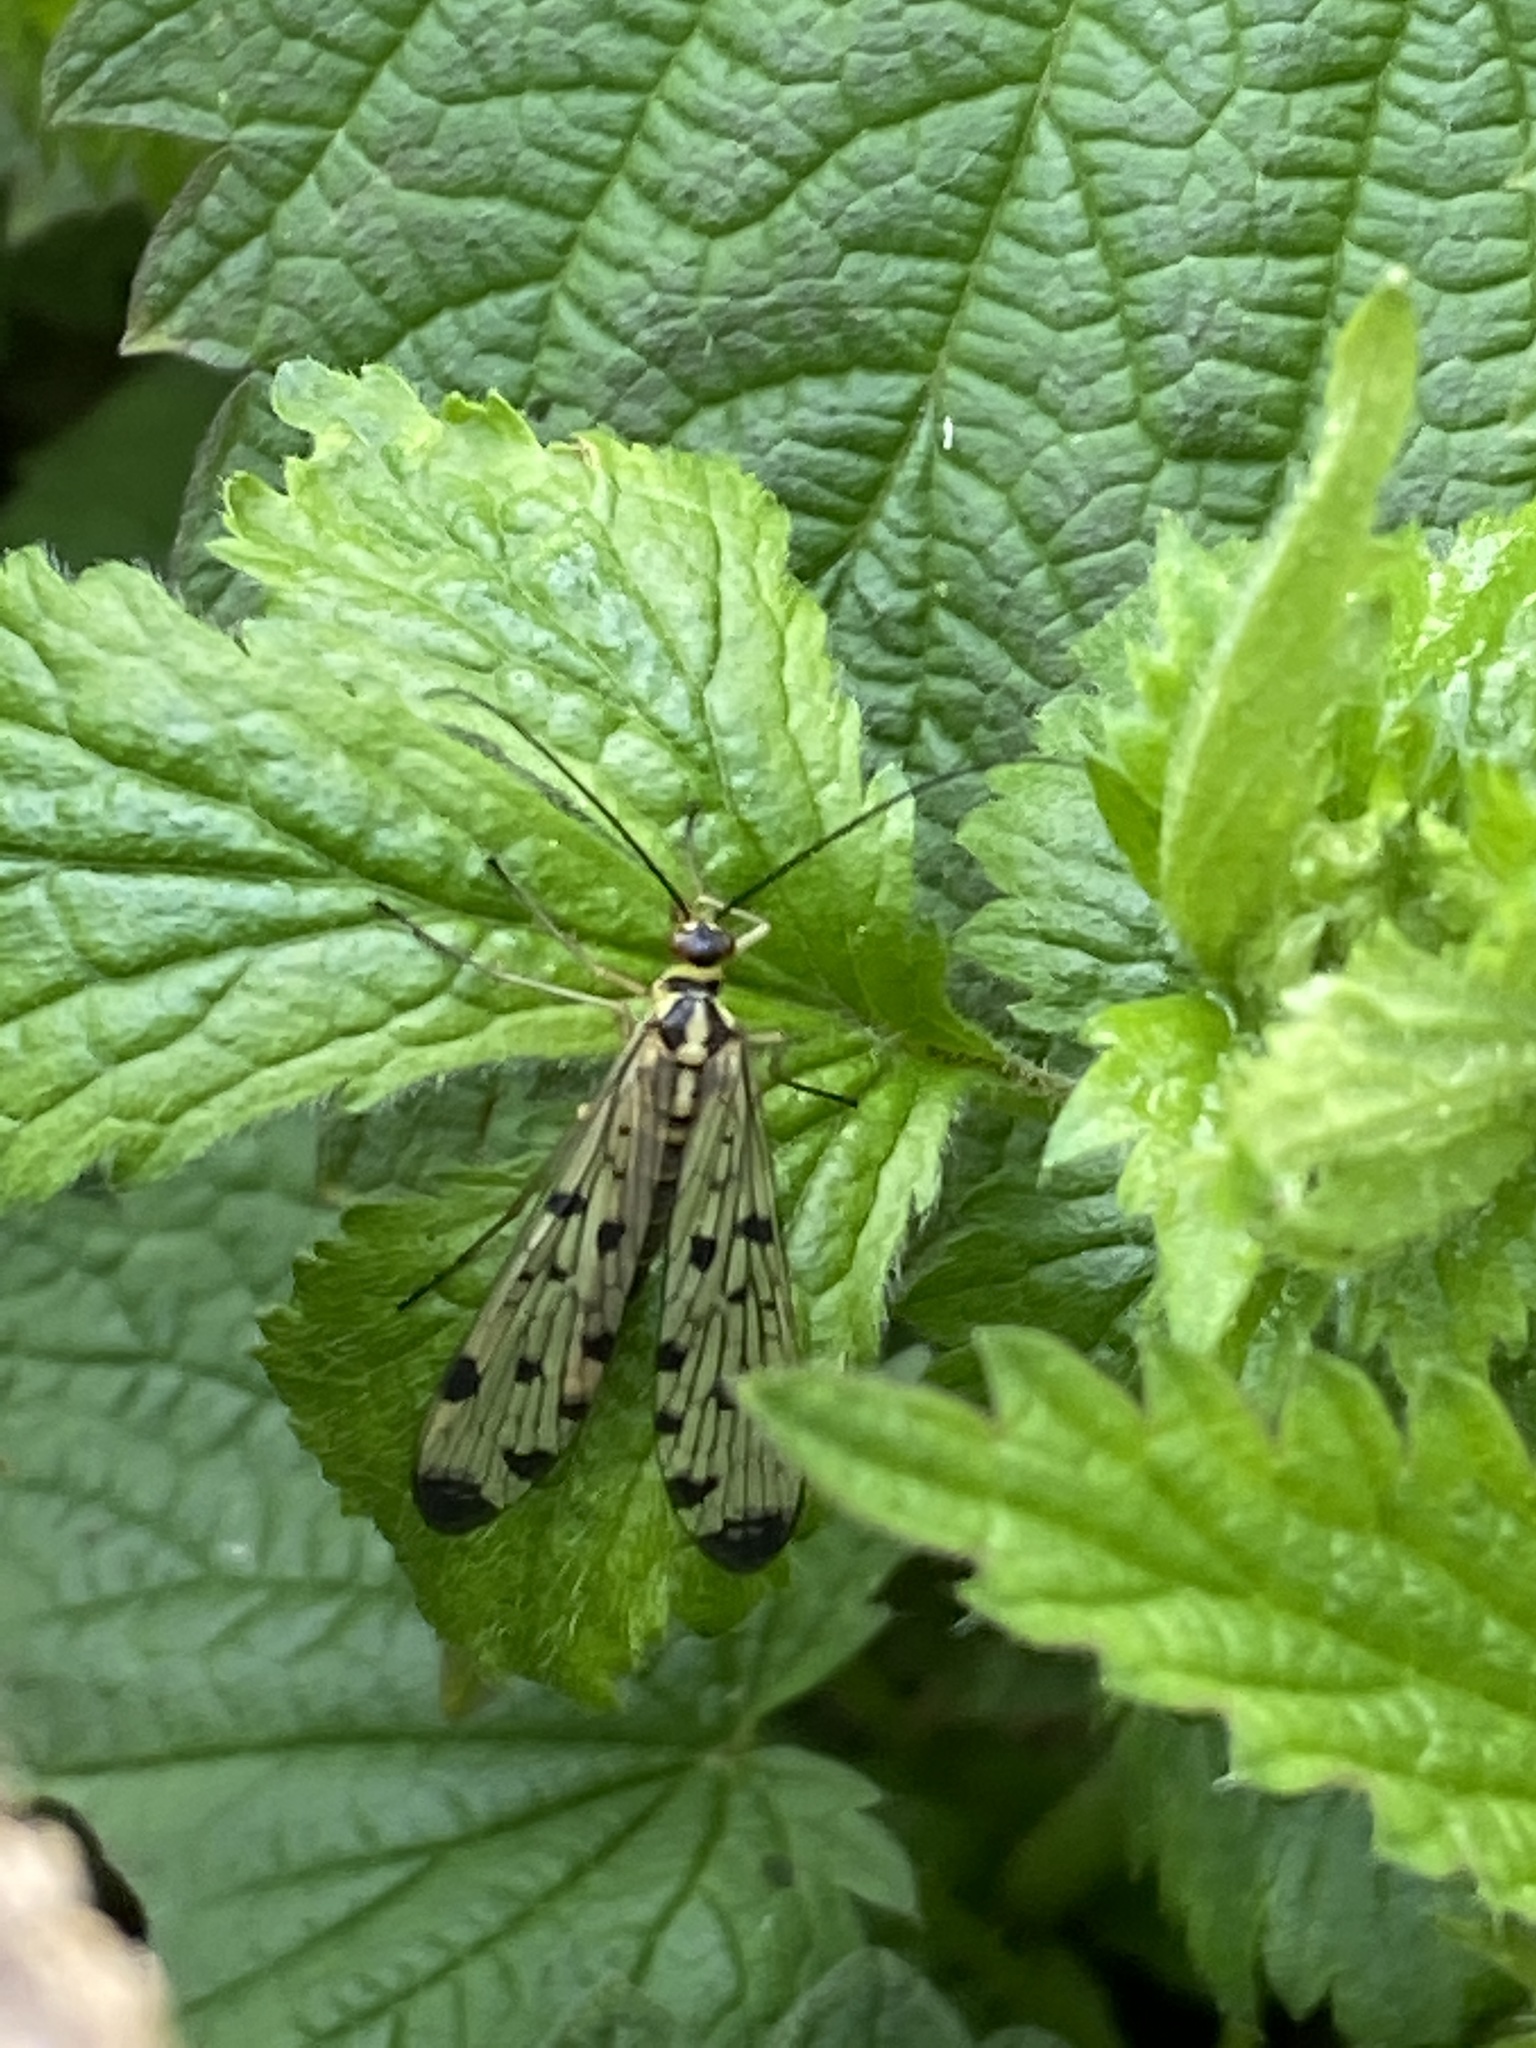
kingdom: Animalia
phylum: Arthropoda
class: Insecta
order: Mecoptera
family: Panorpidae
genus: Panorpa
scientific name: Panorpa germanica
